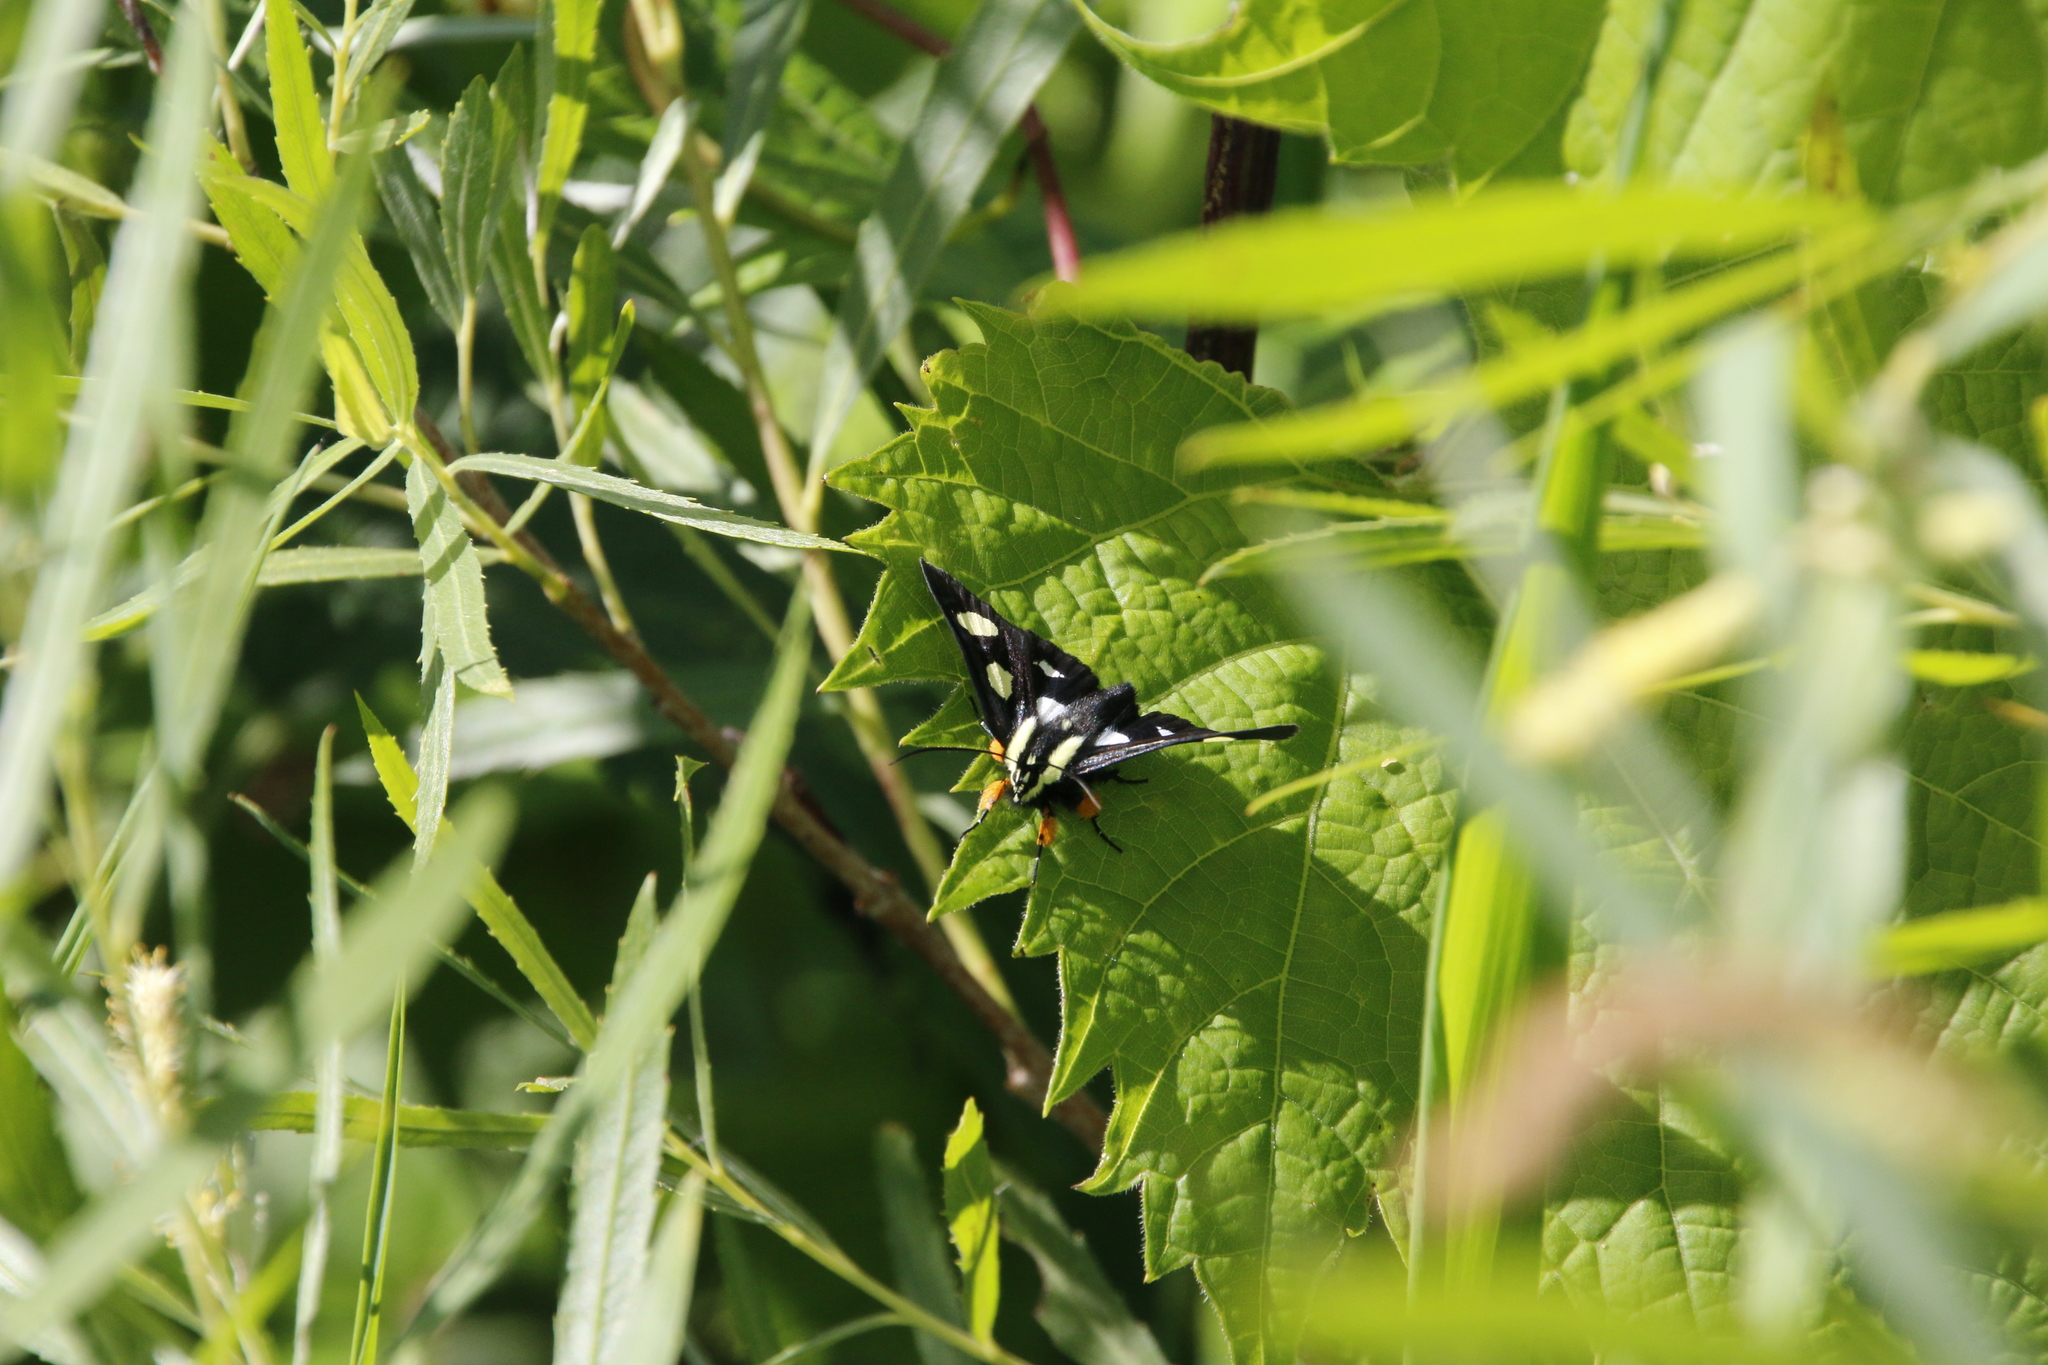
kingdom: Animalia
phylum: Arthropoda
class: Insecta
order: Lepidoptera
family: Noctuidae
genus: Alypia
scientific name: Alypia octomaculata
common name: Eight-spotted forester
